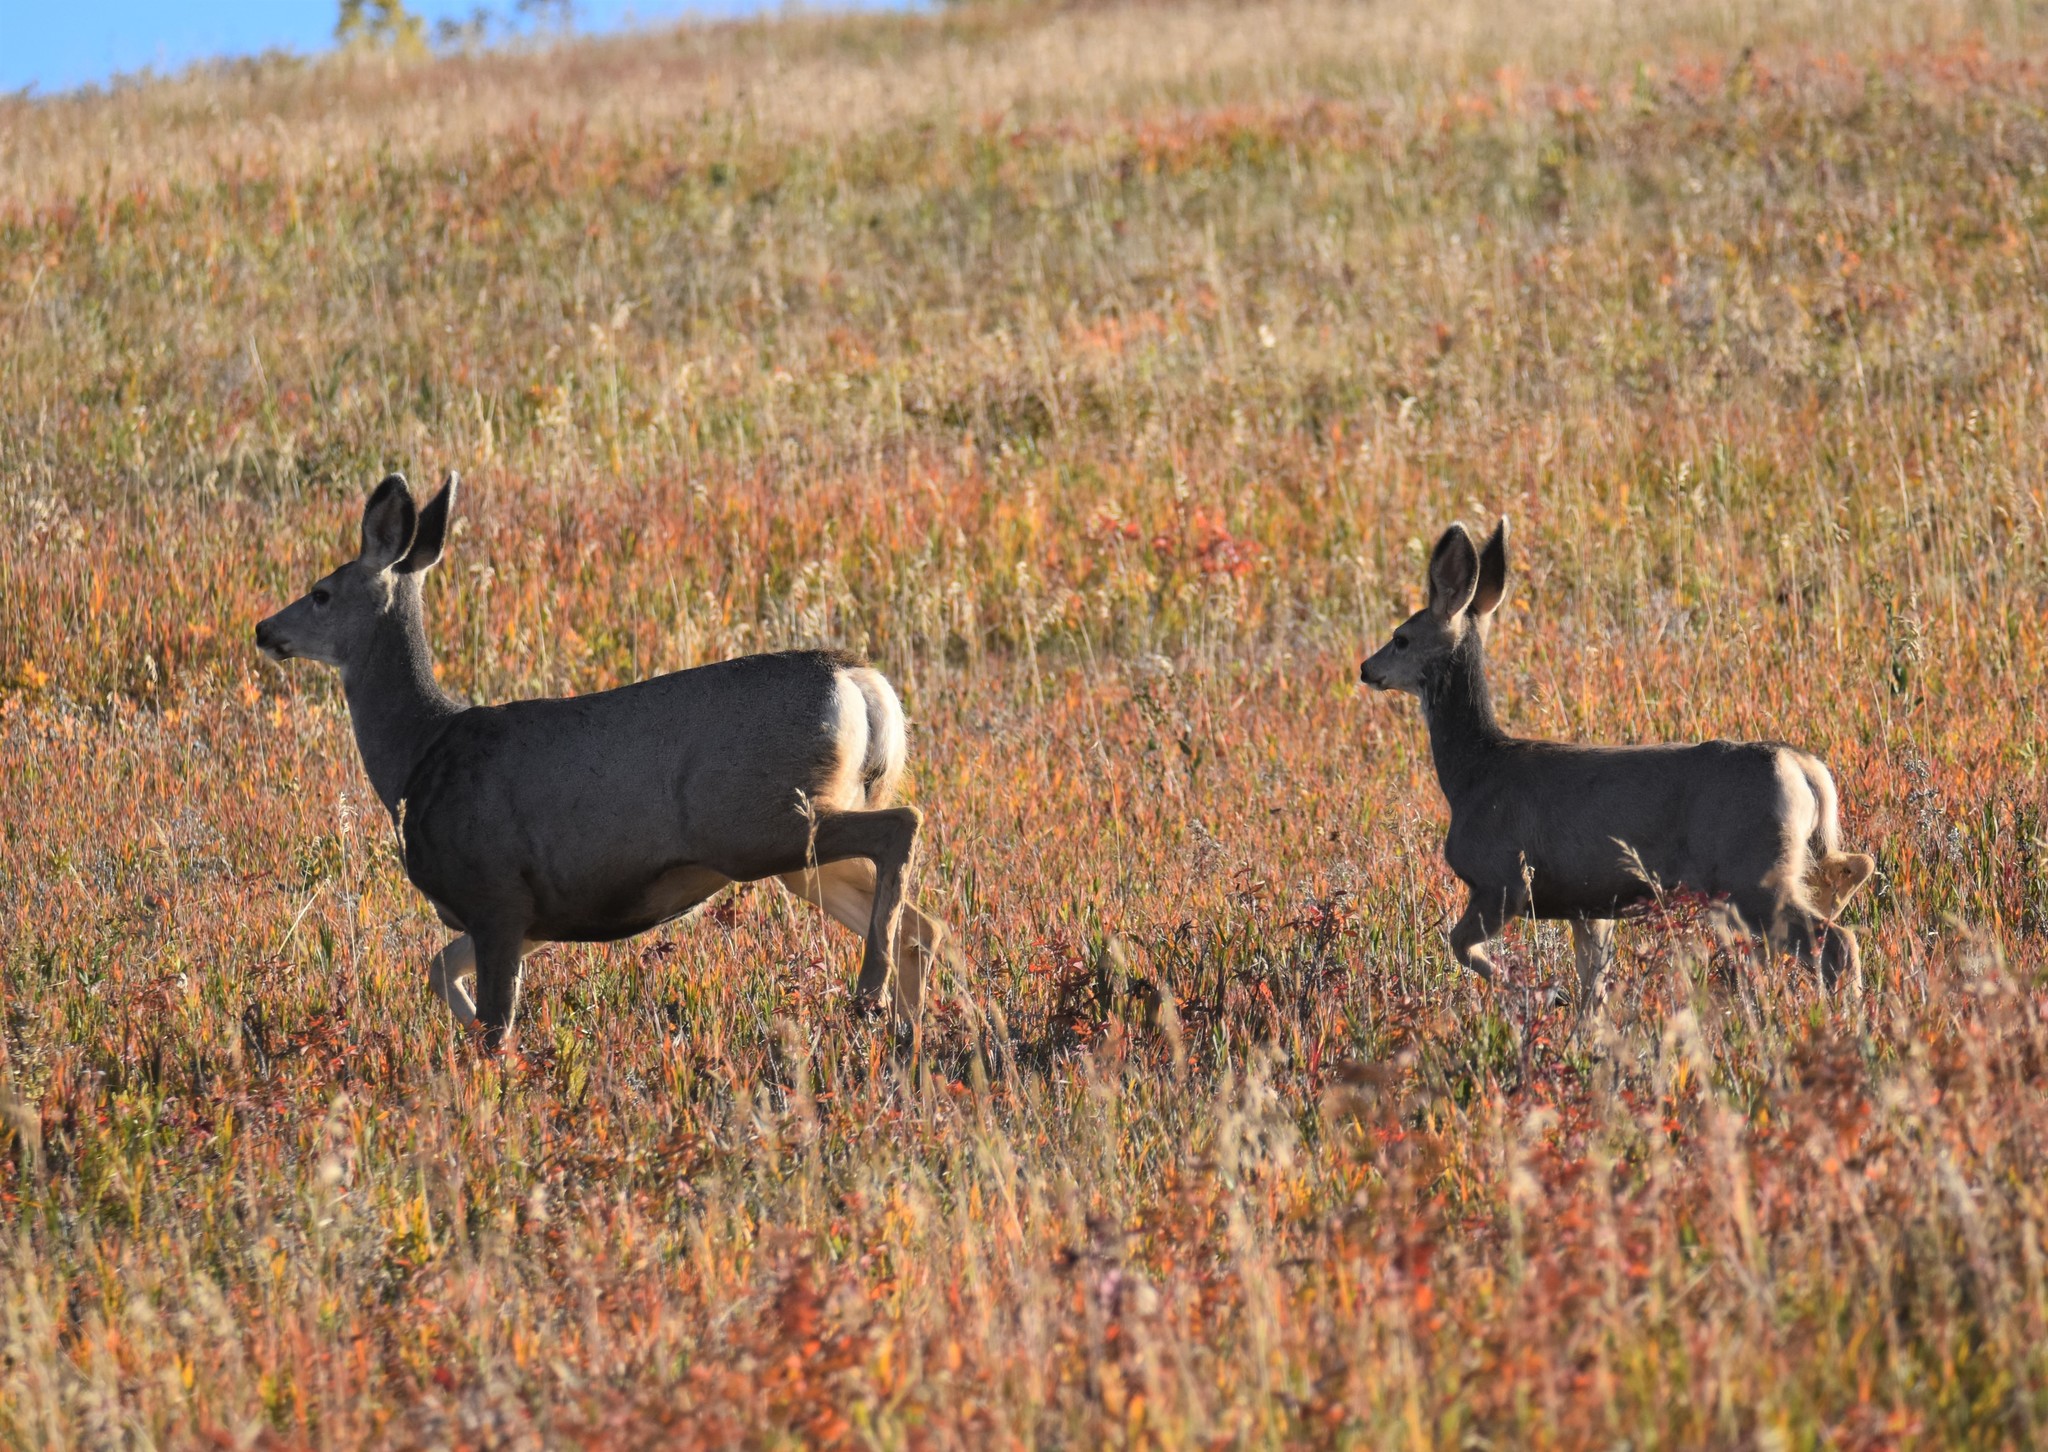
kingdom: Animalia
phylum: Chordata
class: Mammalia
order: Artiodactyla
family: Cervidae
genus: Odocoileus
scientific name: Odocoileus hemionus
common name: Mule deer
